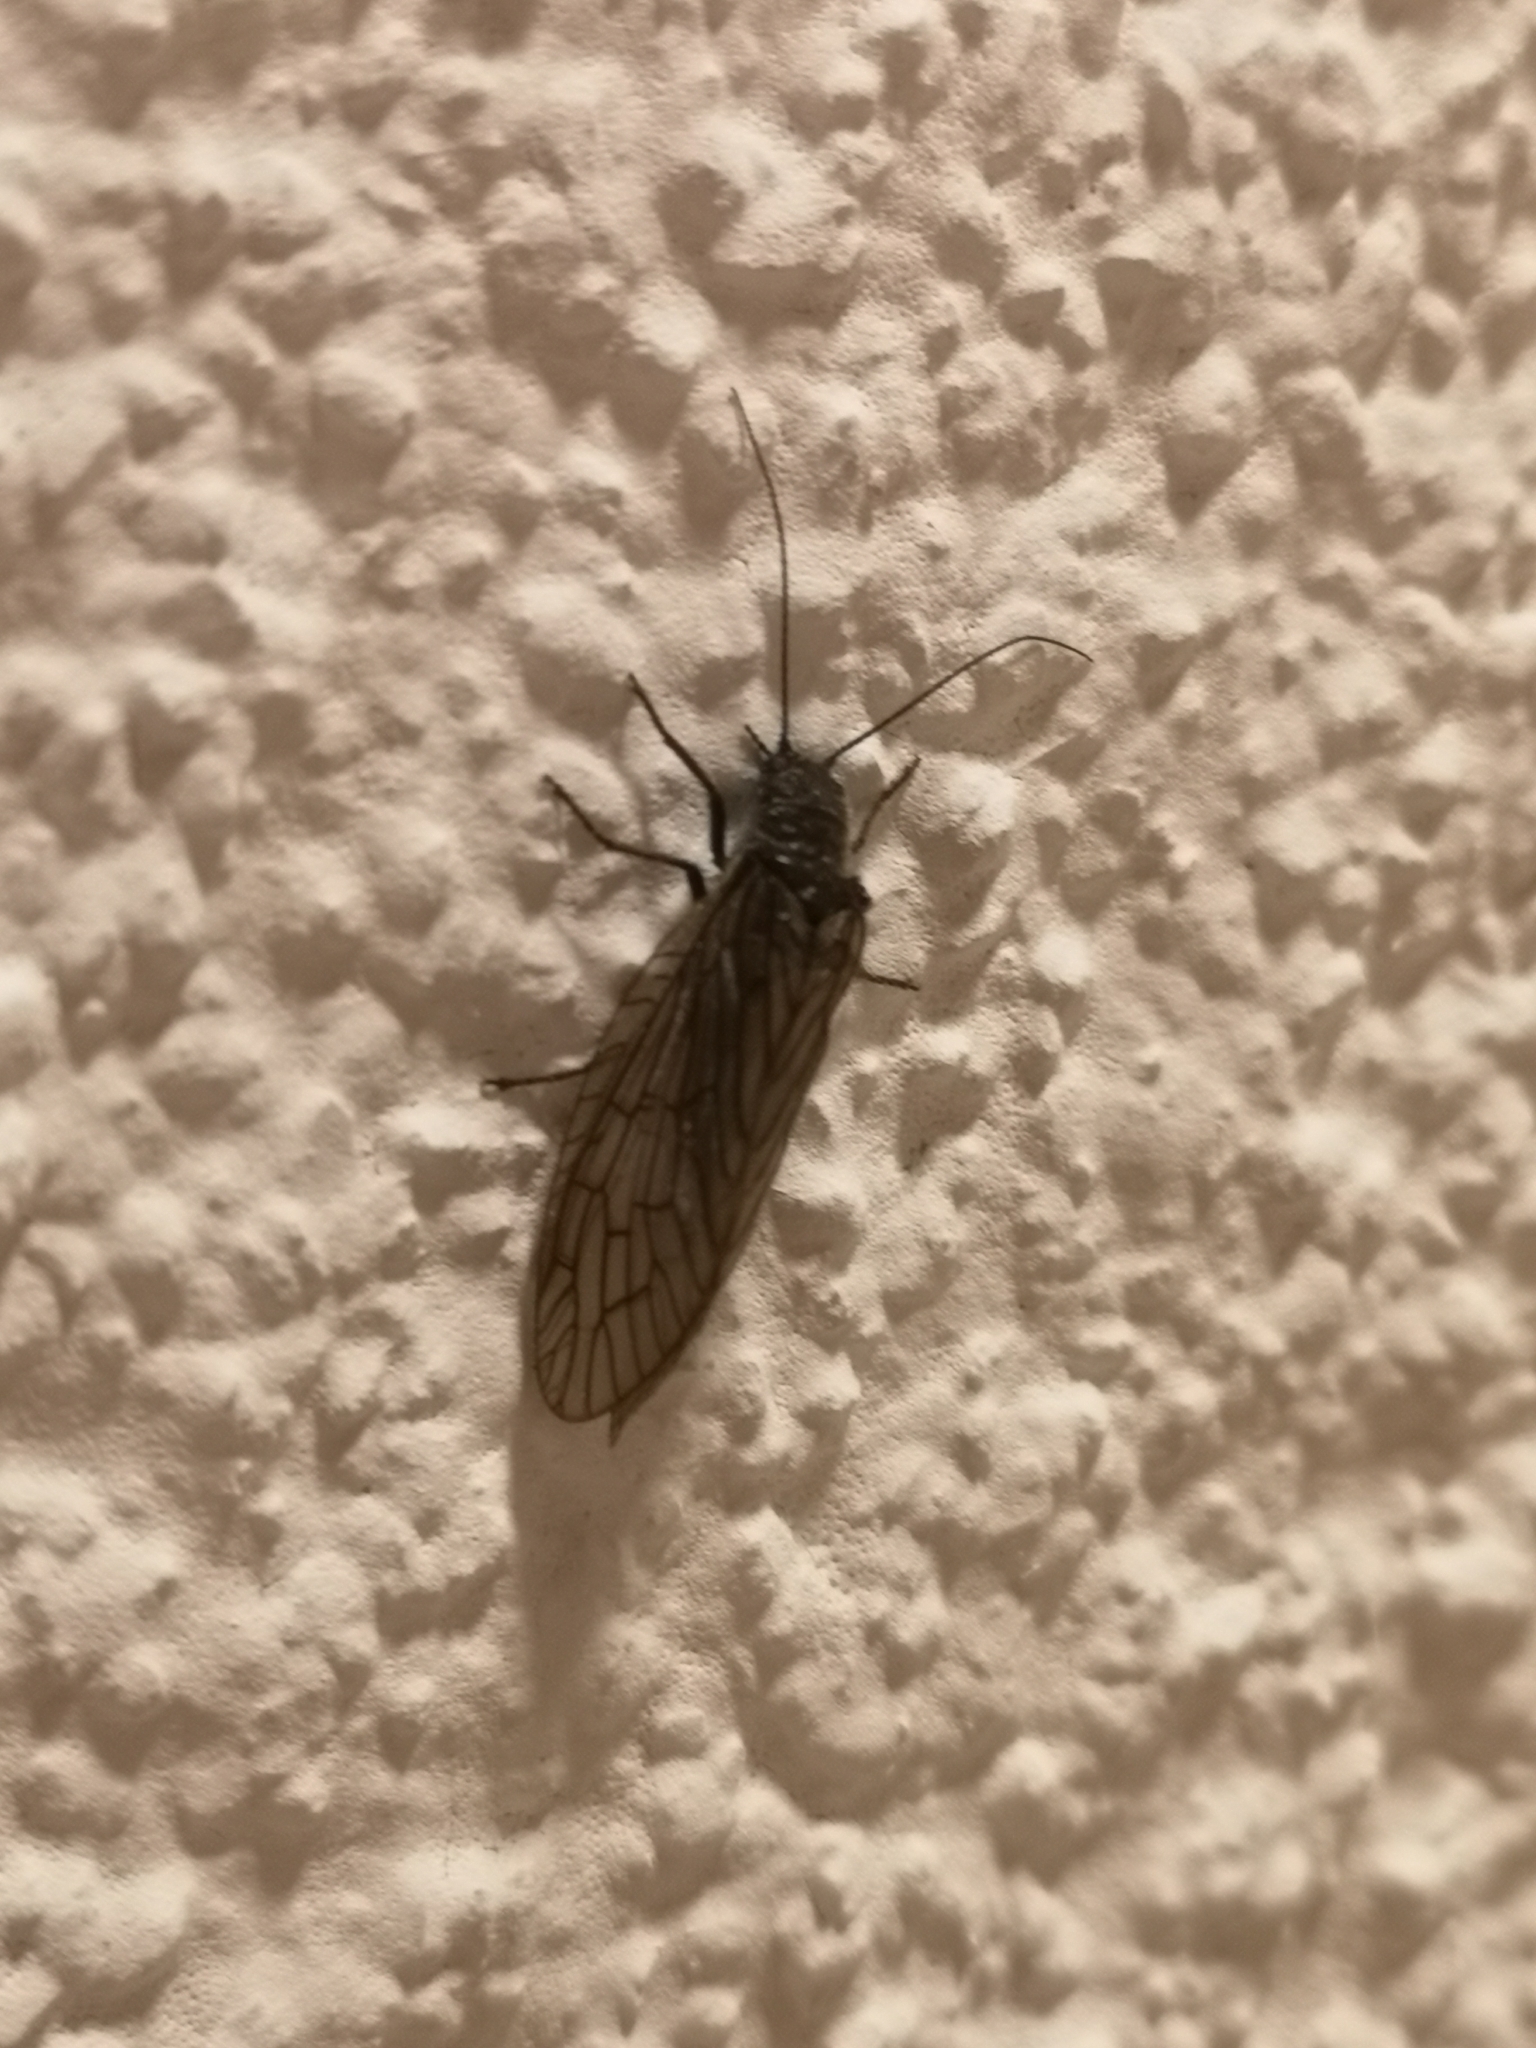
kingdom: Animalia
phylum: Arthropoda
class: Insecta
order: Megaloptera
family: Sialidae
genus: Sialis
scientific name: Sialis
